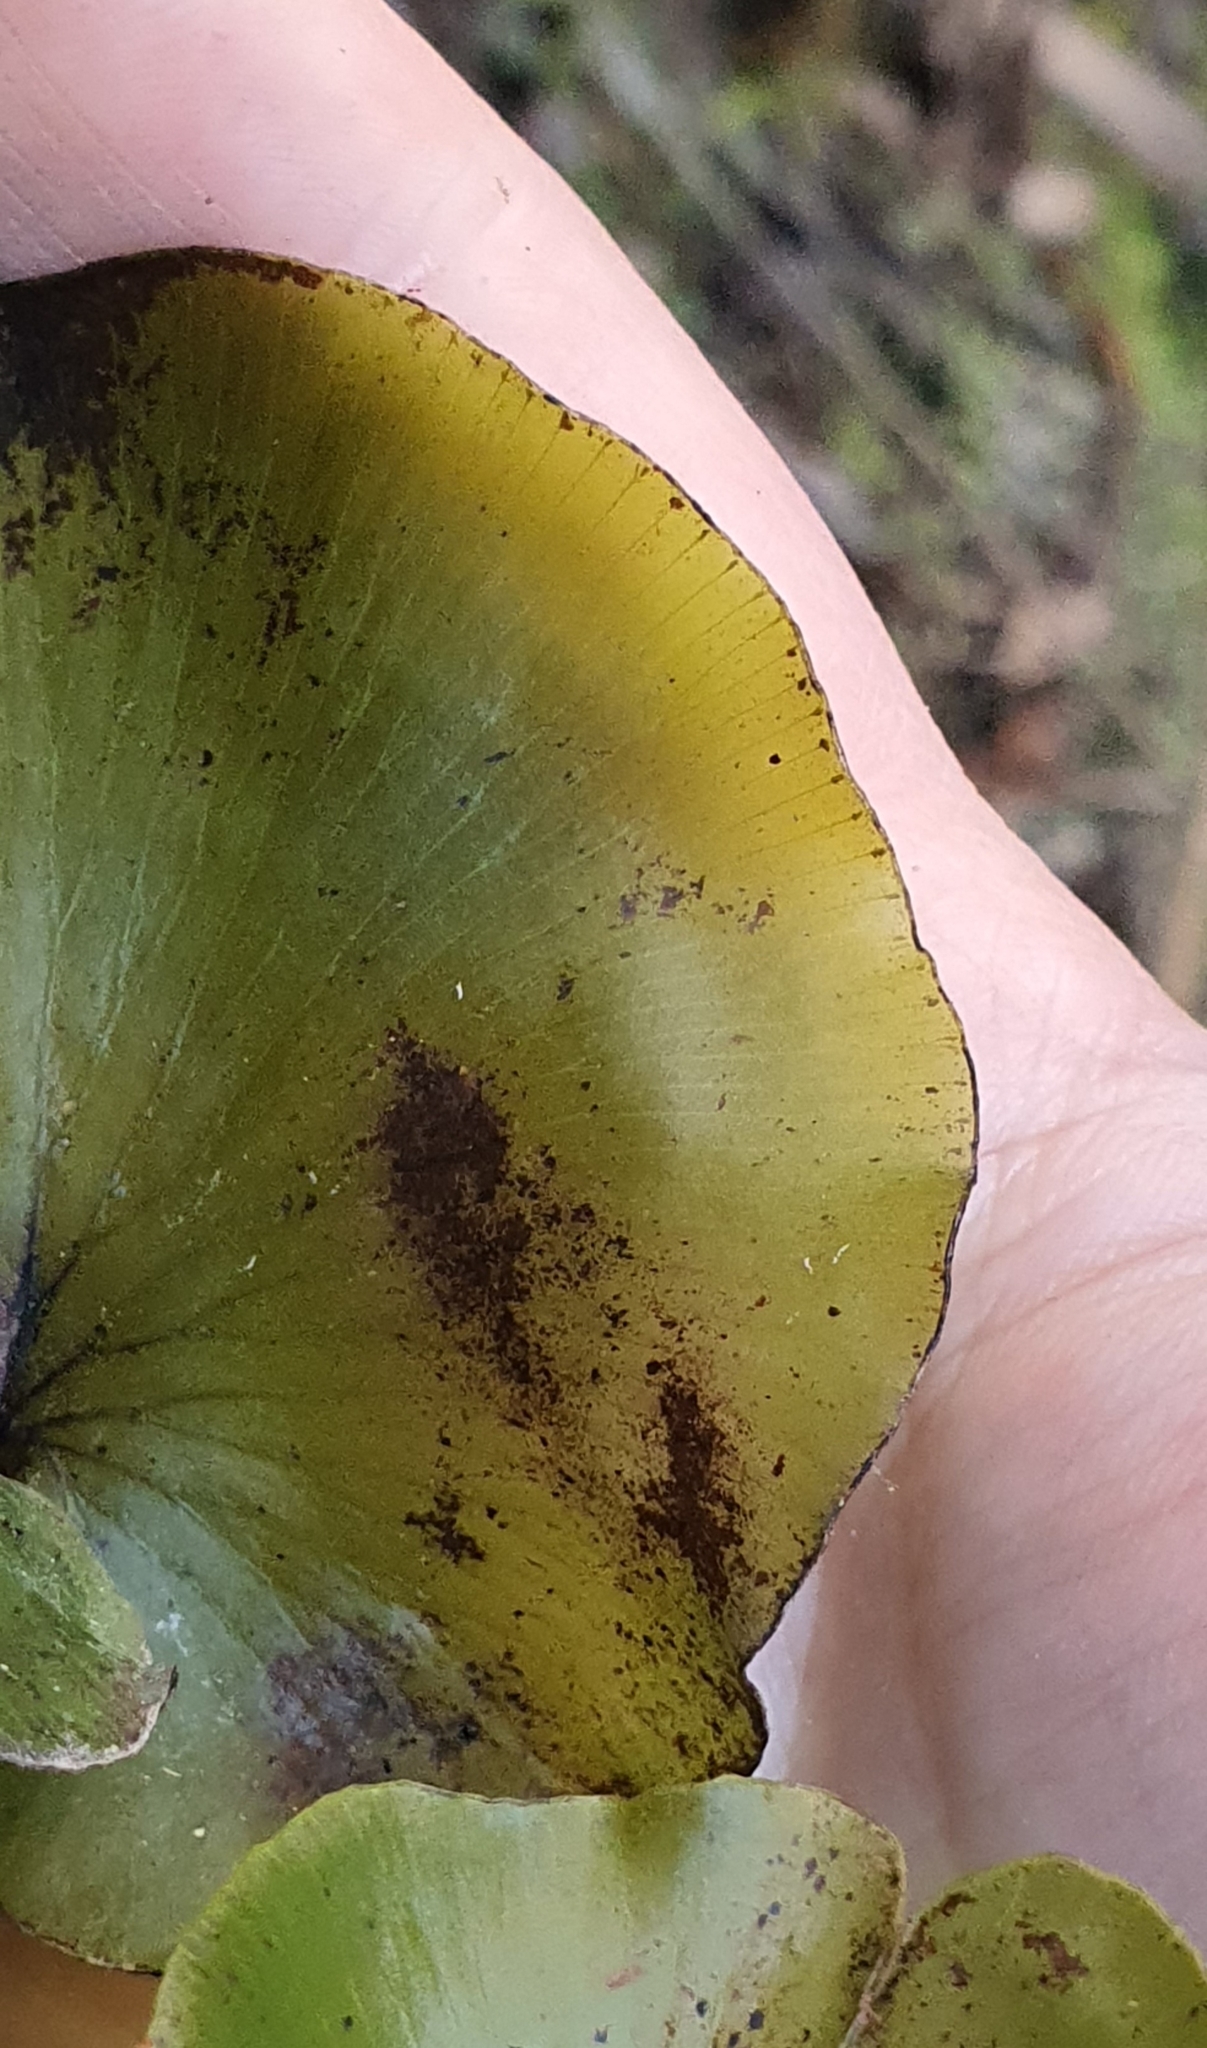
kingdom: Plantae
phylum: Tracheophyta
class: Polypodiopsida
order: Hymenophyllales
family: Hymenophyllaceae
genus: Hymenophyllum
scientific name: Hymenophyllum nephrophyllum
